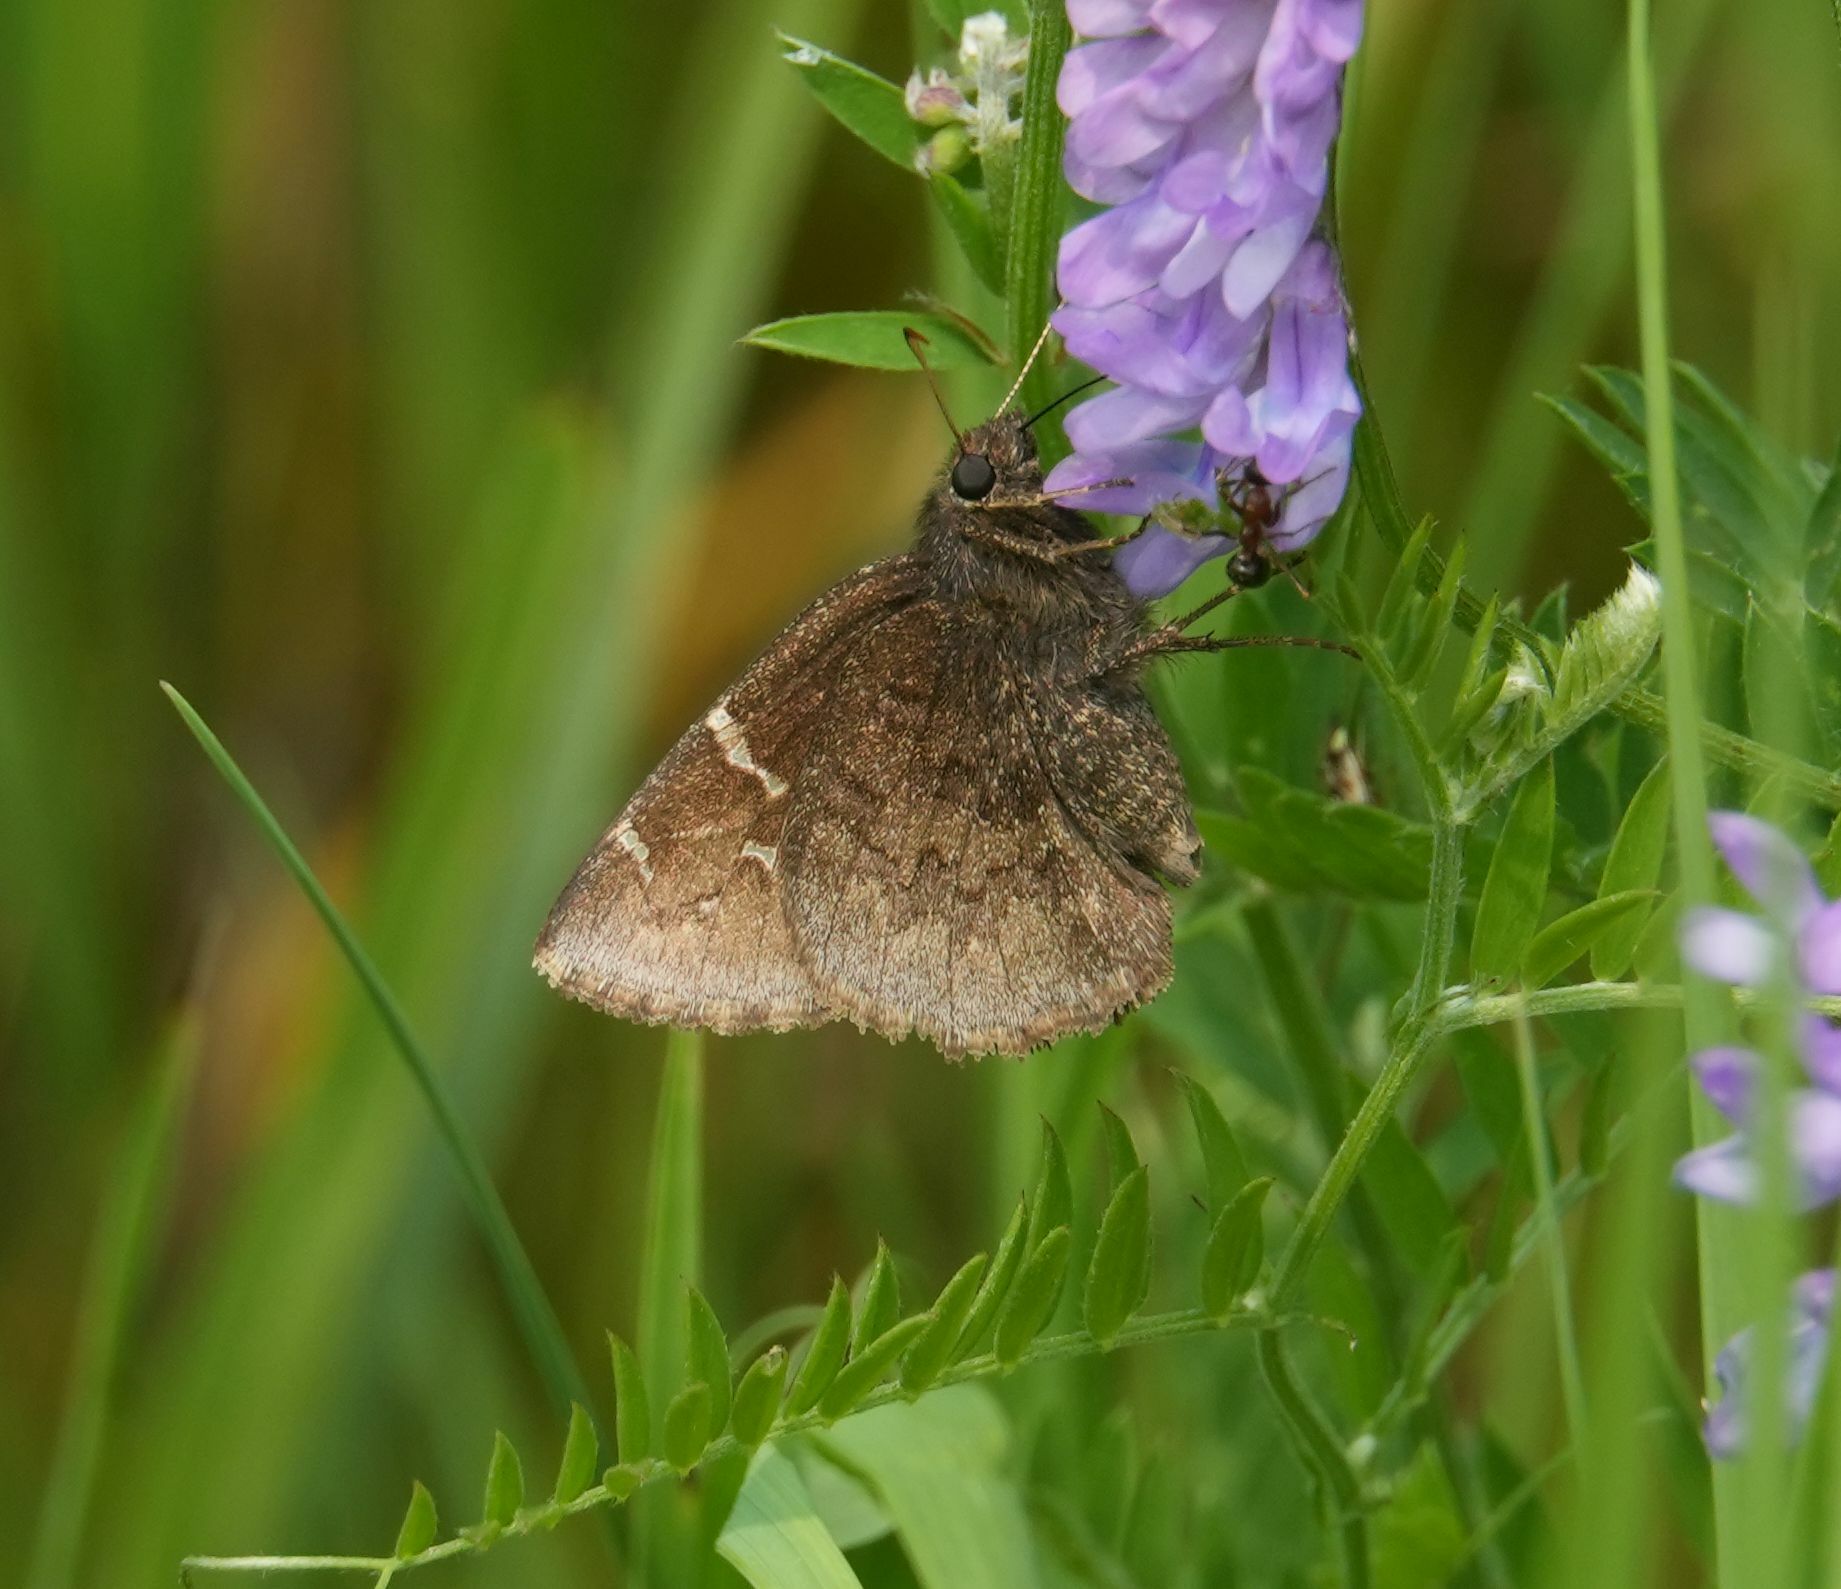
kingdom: Animalia
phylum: Arthropoda
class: Insecta
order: Lepidoptera
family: Hesperiidae
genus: Thorybes
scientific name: Thorybes pylades
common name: Northern cloudywing
